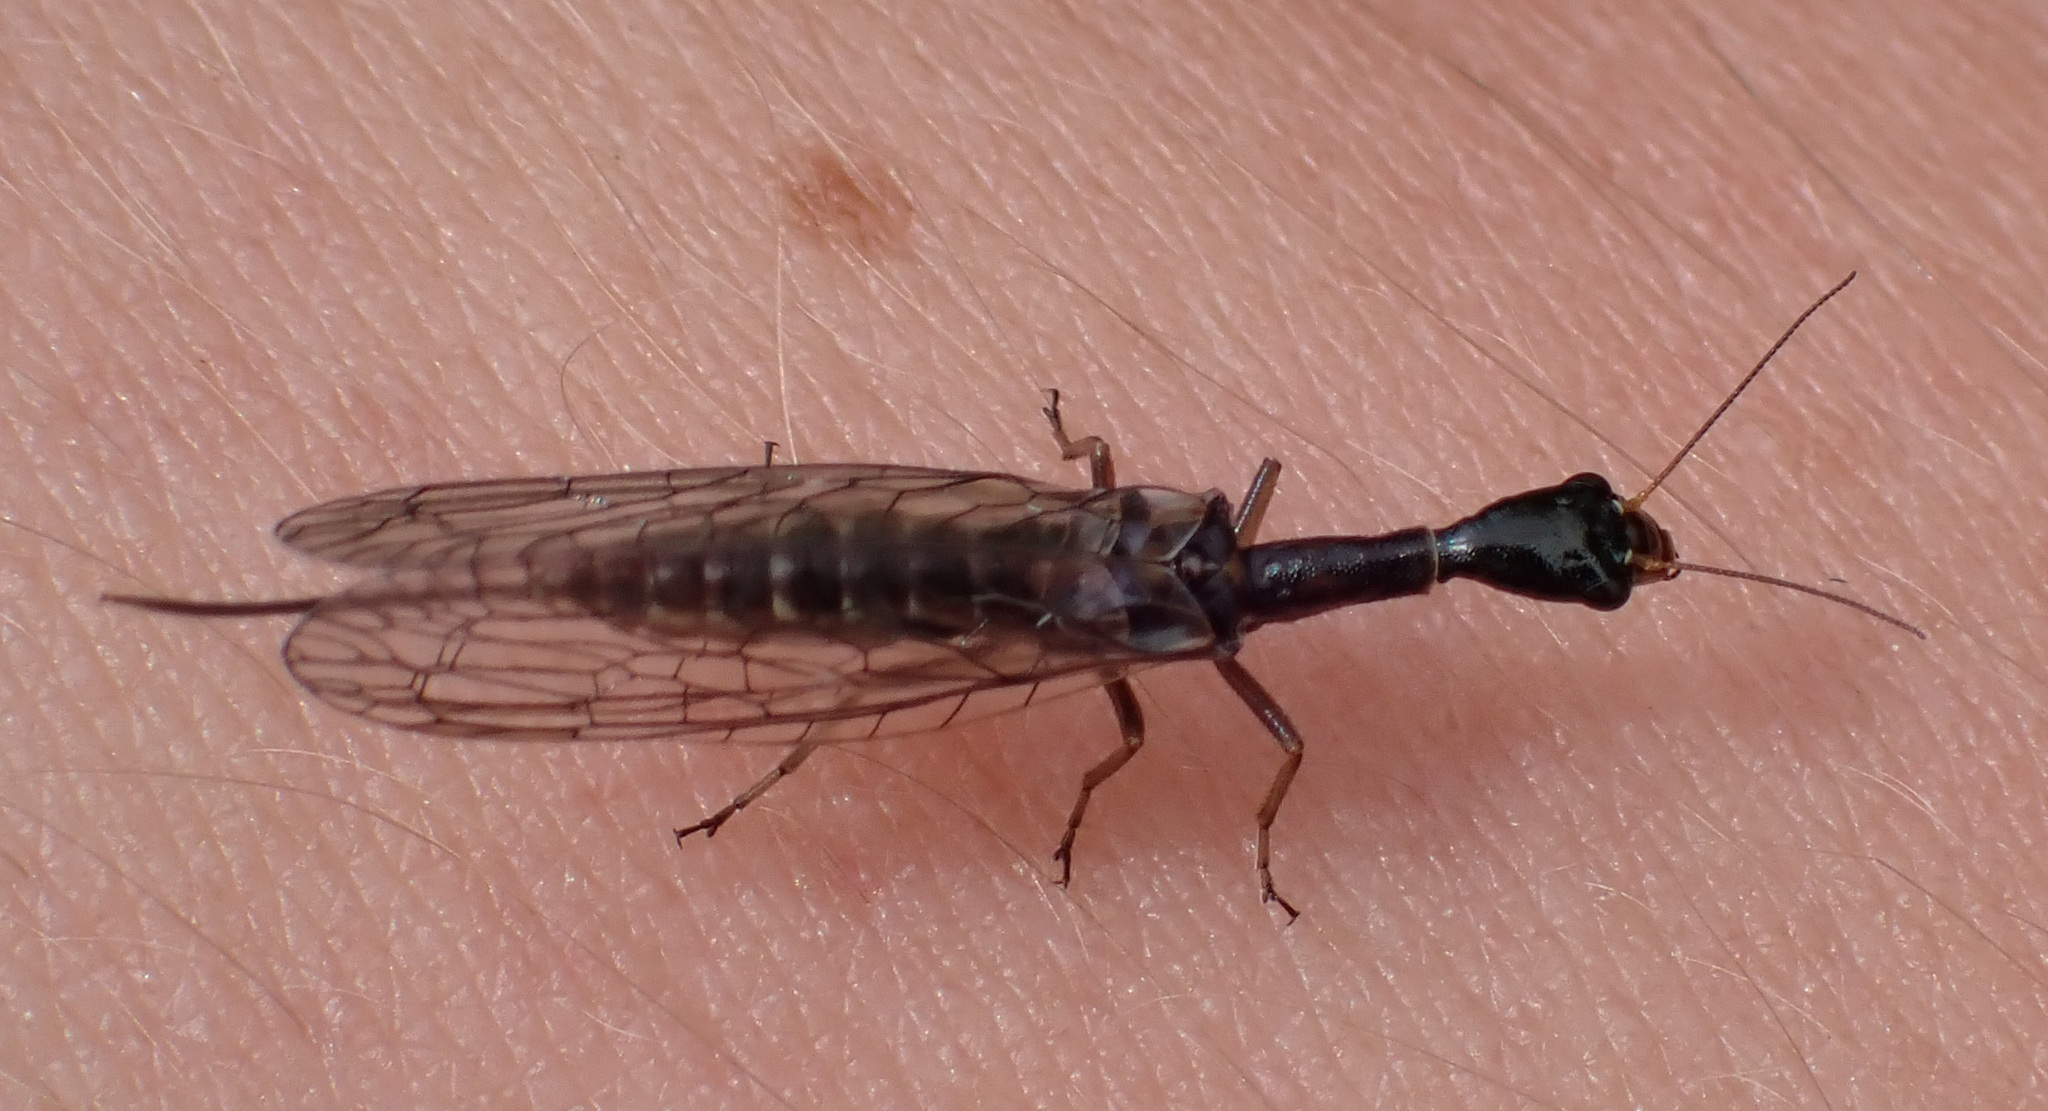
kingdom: Animalia
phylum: Arthropoda
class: Insecta
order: Raphidioptera
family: Raphidiidae
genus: Xanthostigma
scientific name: Xanthostigma xanthostigma
